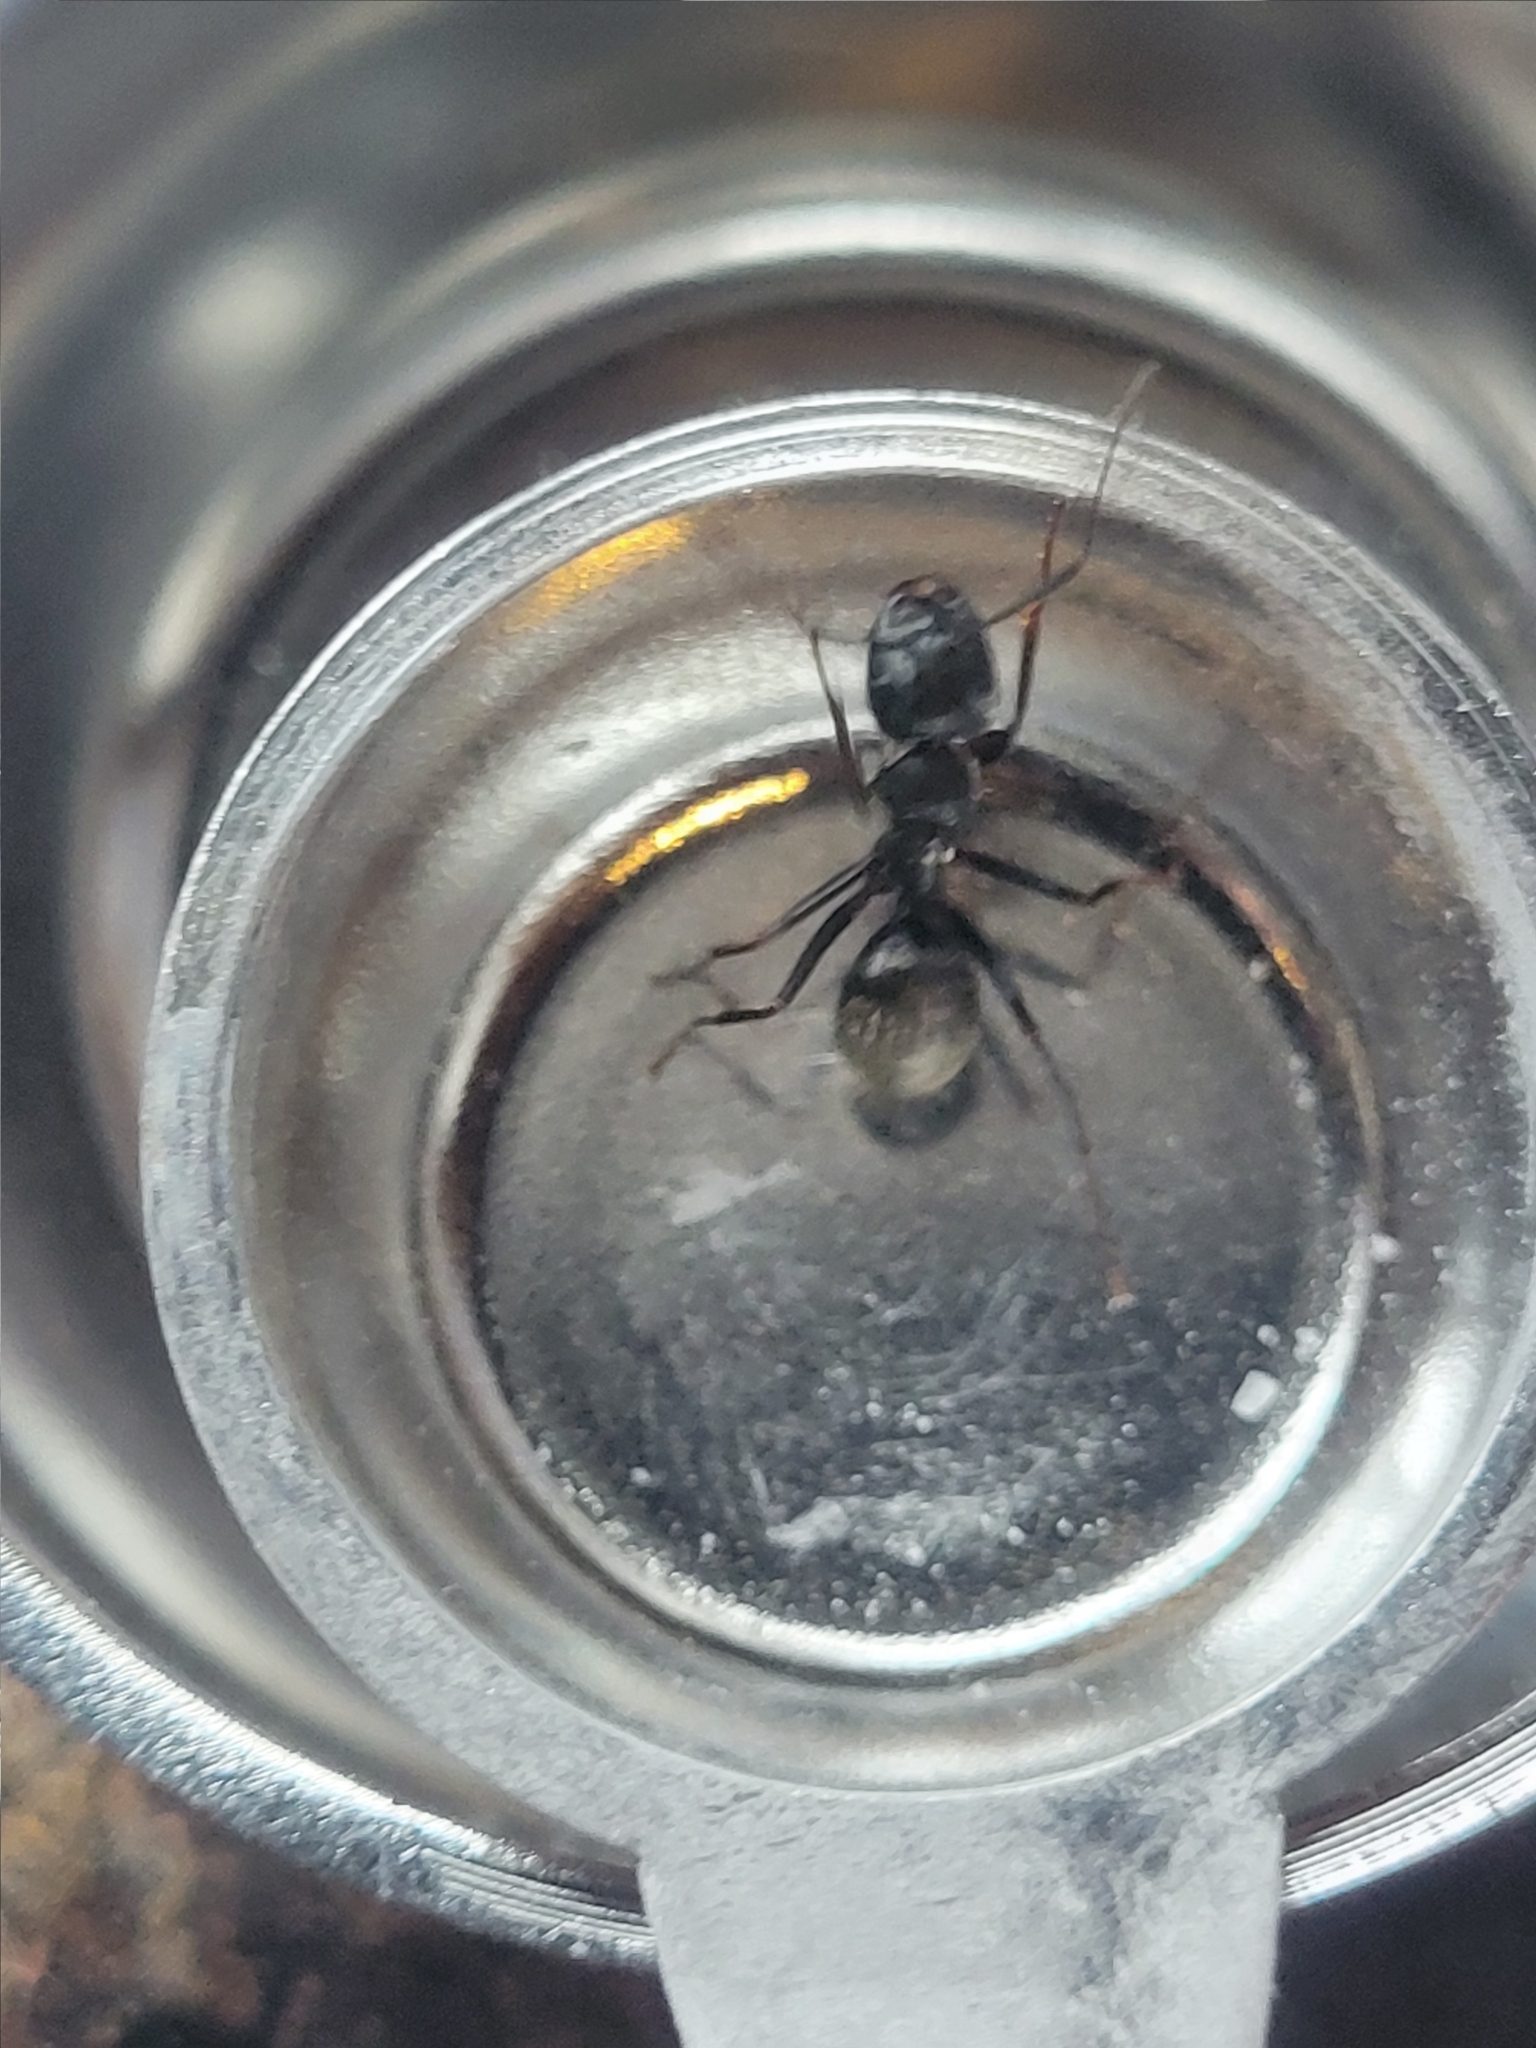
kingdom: Animalia
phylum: Arthropoda
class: Insecta
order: Hymenoptera
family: Formicidae
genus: Camponotus
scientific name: Camponotus pennsylvanicus
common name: Black carpenter ant
